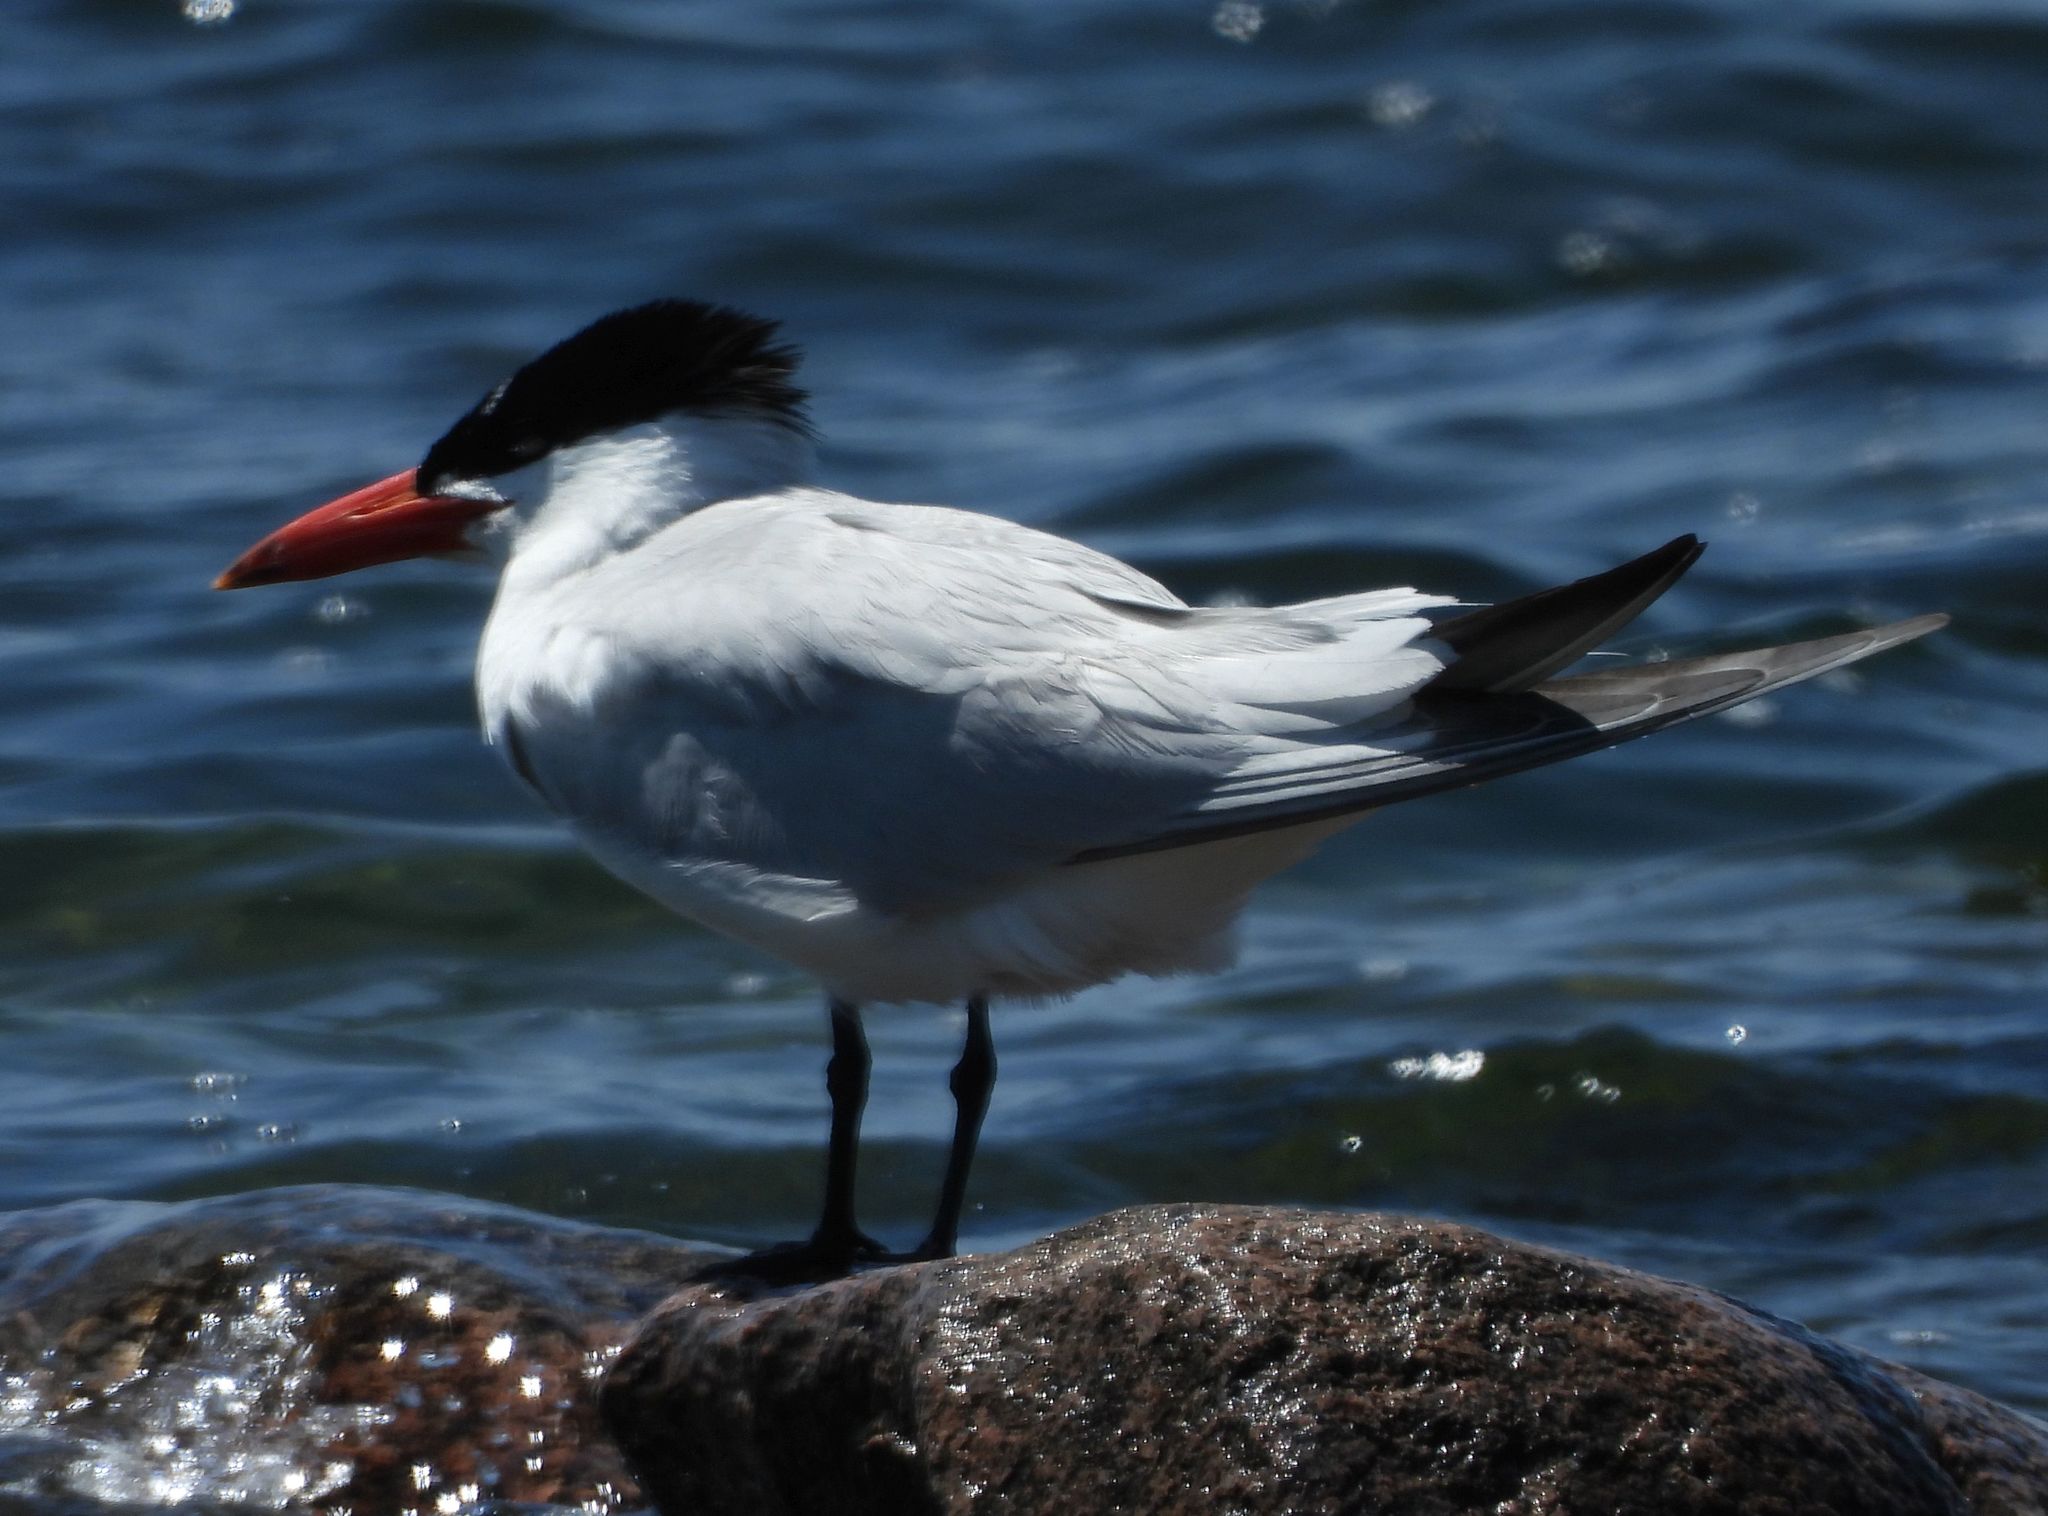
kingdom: Animalia
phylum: Chordata
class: Aves
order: Charadriiformes
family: Laridae
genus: Hydroprogne
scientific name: Hydroprogne caspia
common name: Caspian tern
